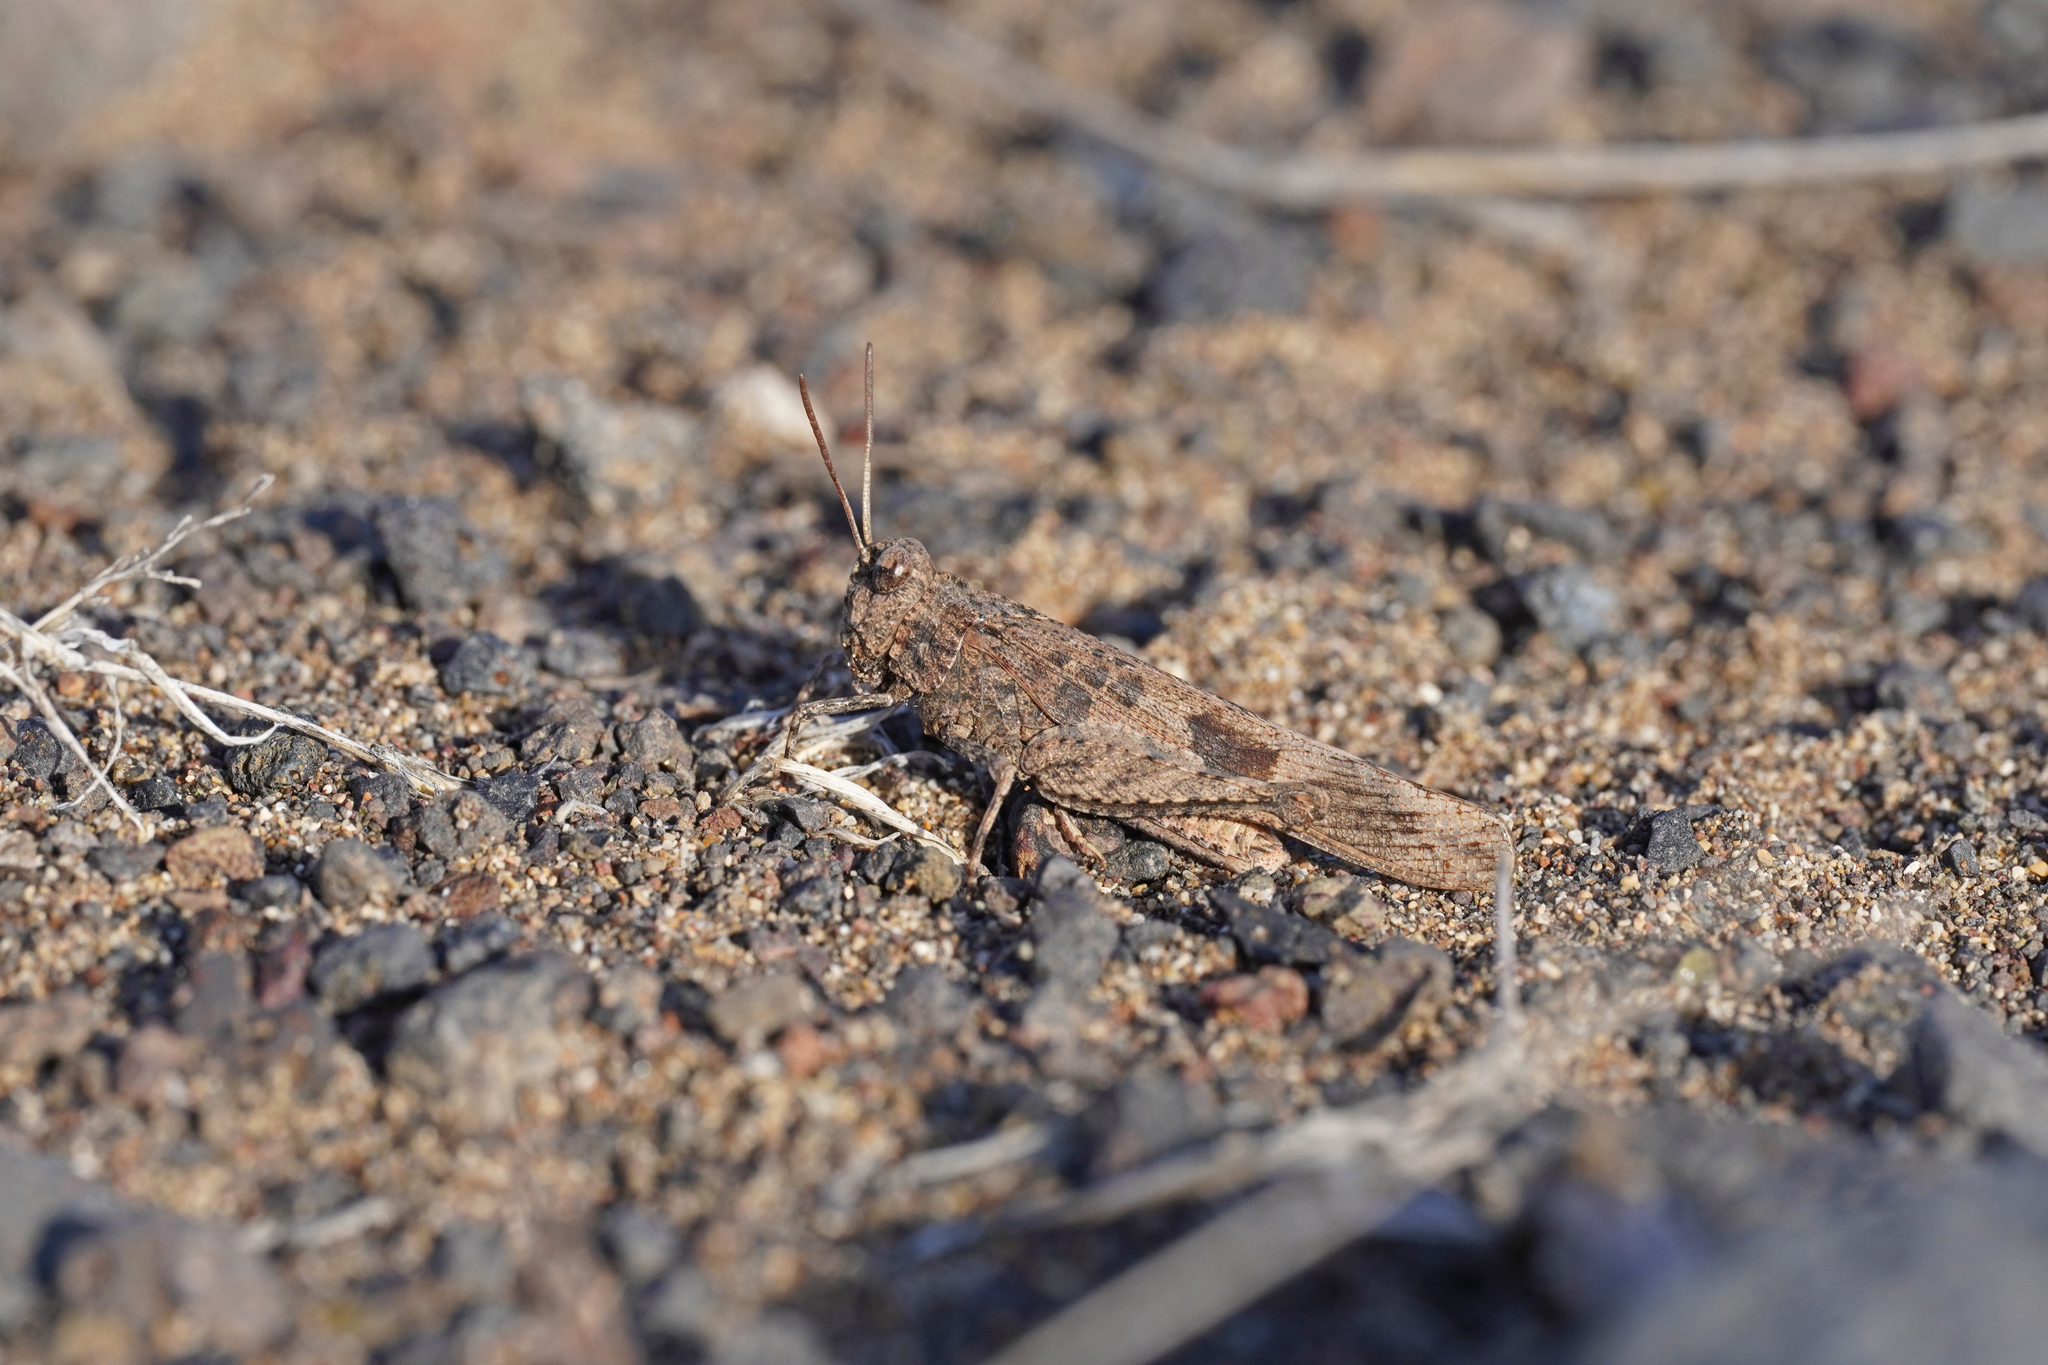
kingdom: Animalia
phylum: Arthropoda
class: Insecta
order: Orthoptera
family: Acrididae
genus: Oedipoda
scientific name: Oedipoda canariensis
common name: Canarian band-winged grasshopper
